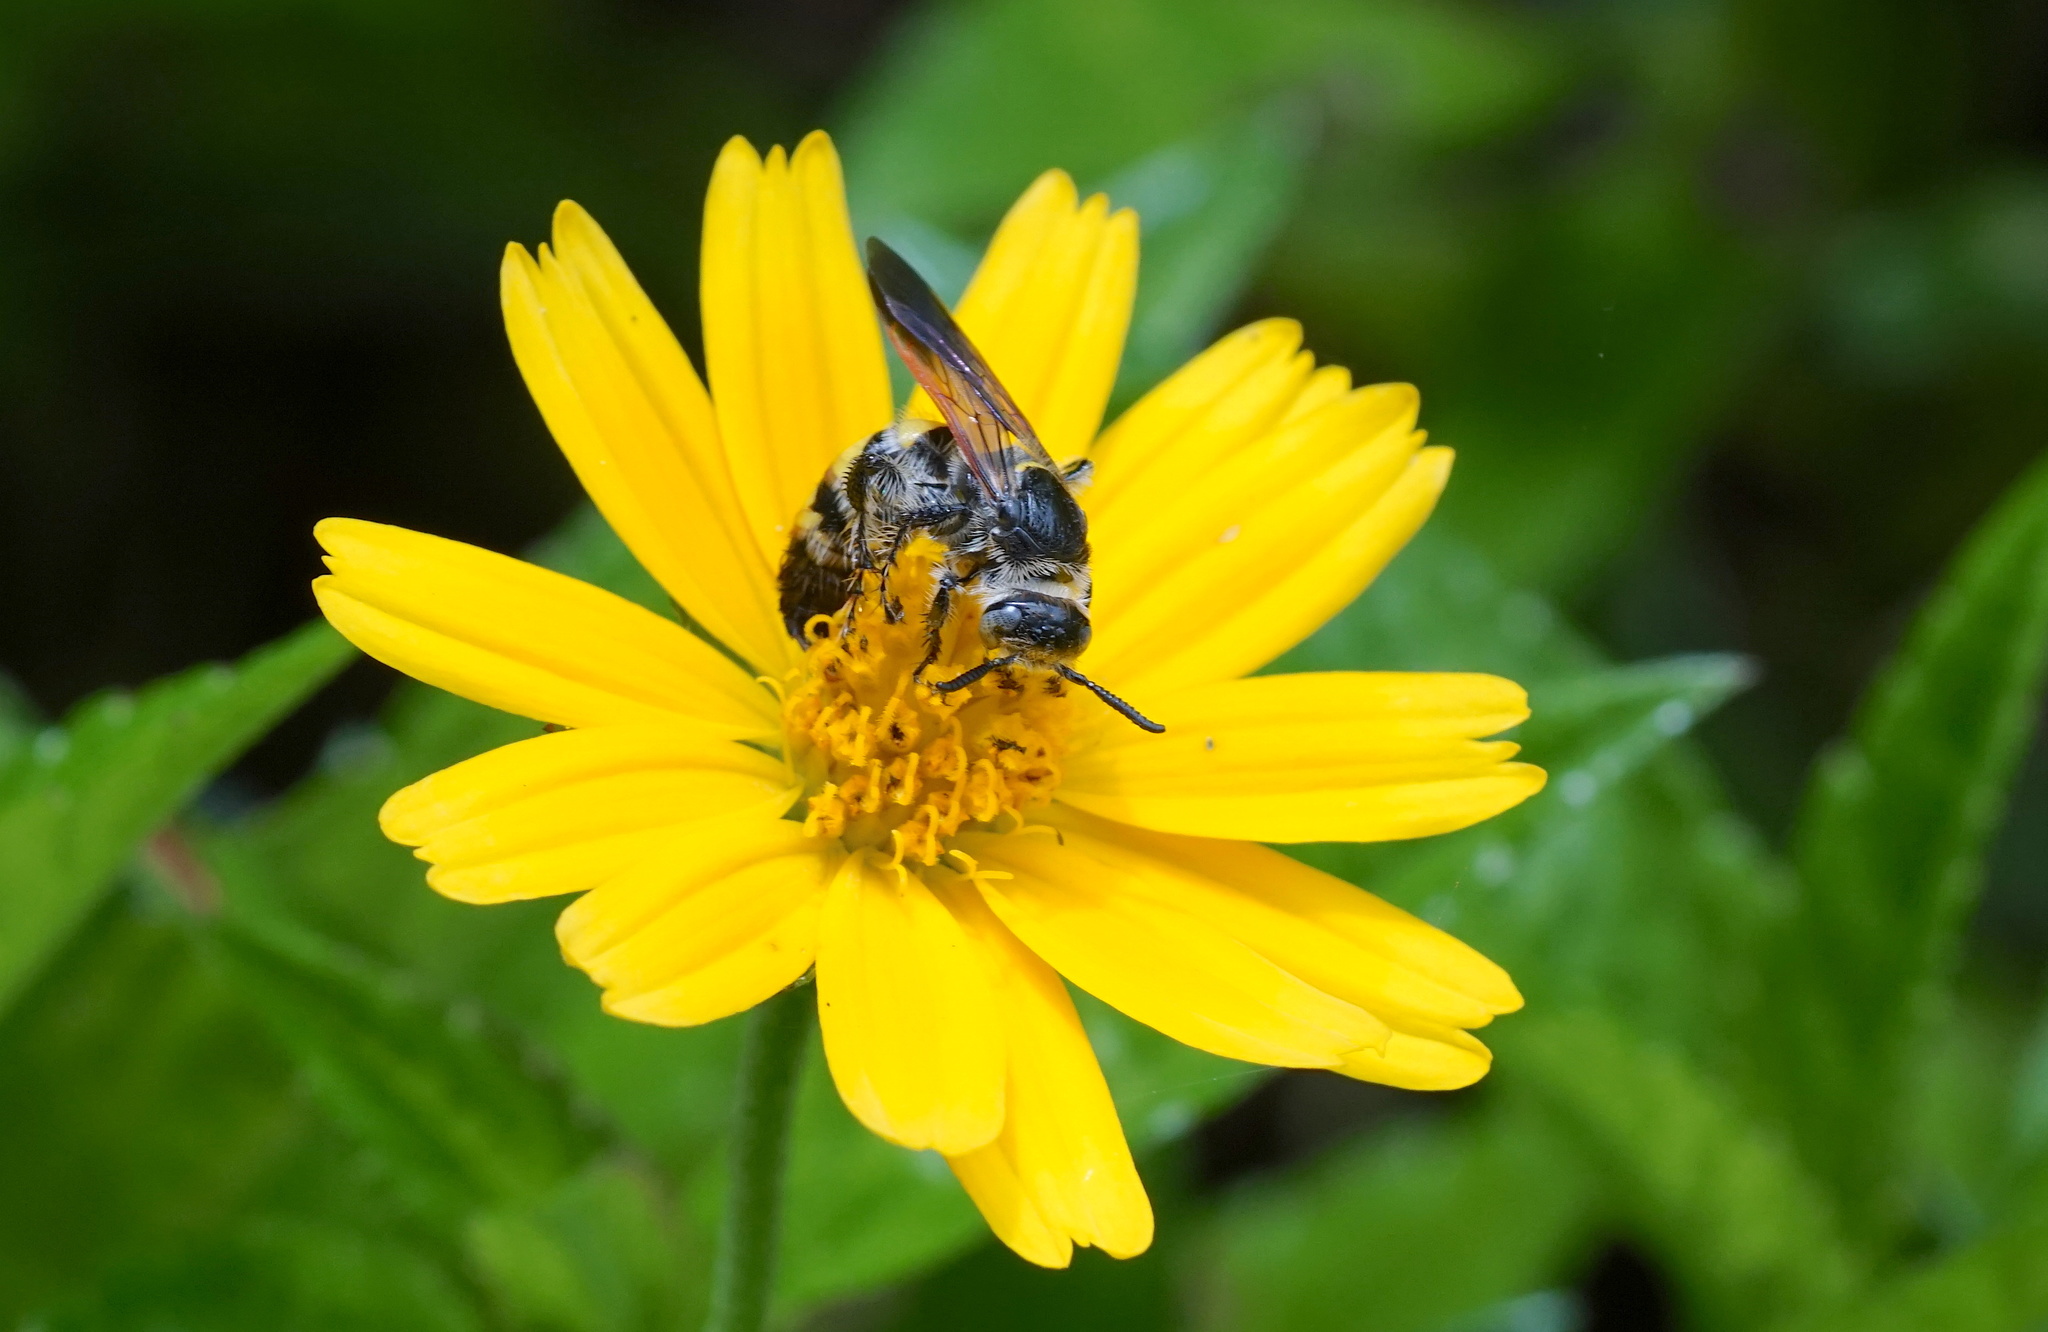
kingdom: Animalia
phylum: Arthropoda
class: Insecta
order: Hymenoptera
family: Scoliidae
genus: Dielis
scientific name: Dielis
